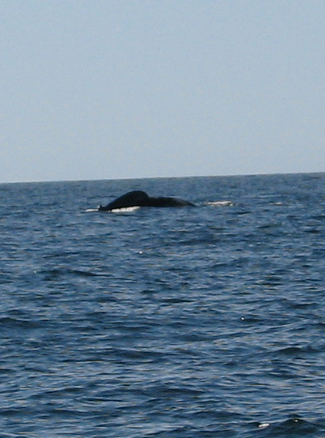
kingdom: Animalia
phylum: Chordata
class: Mammalia
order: Cetacea
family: Balaenopteridae
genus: Megaptera
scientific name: Megaptera novaeangliae
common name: Humpback whale
